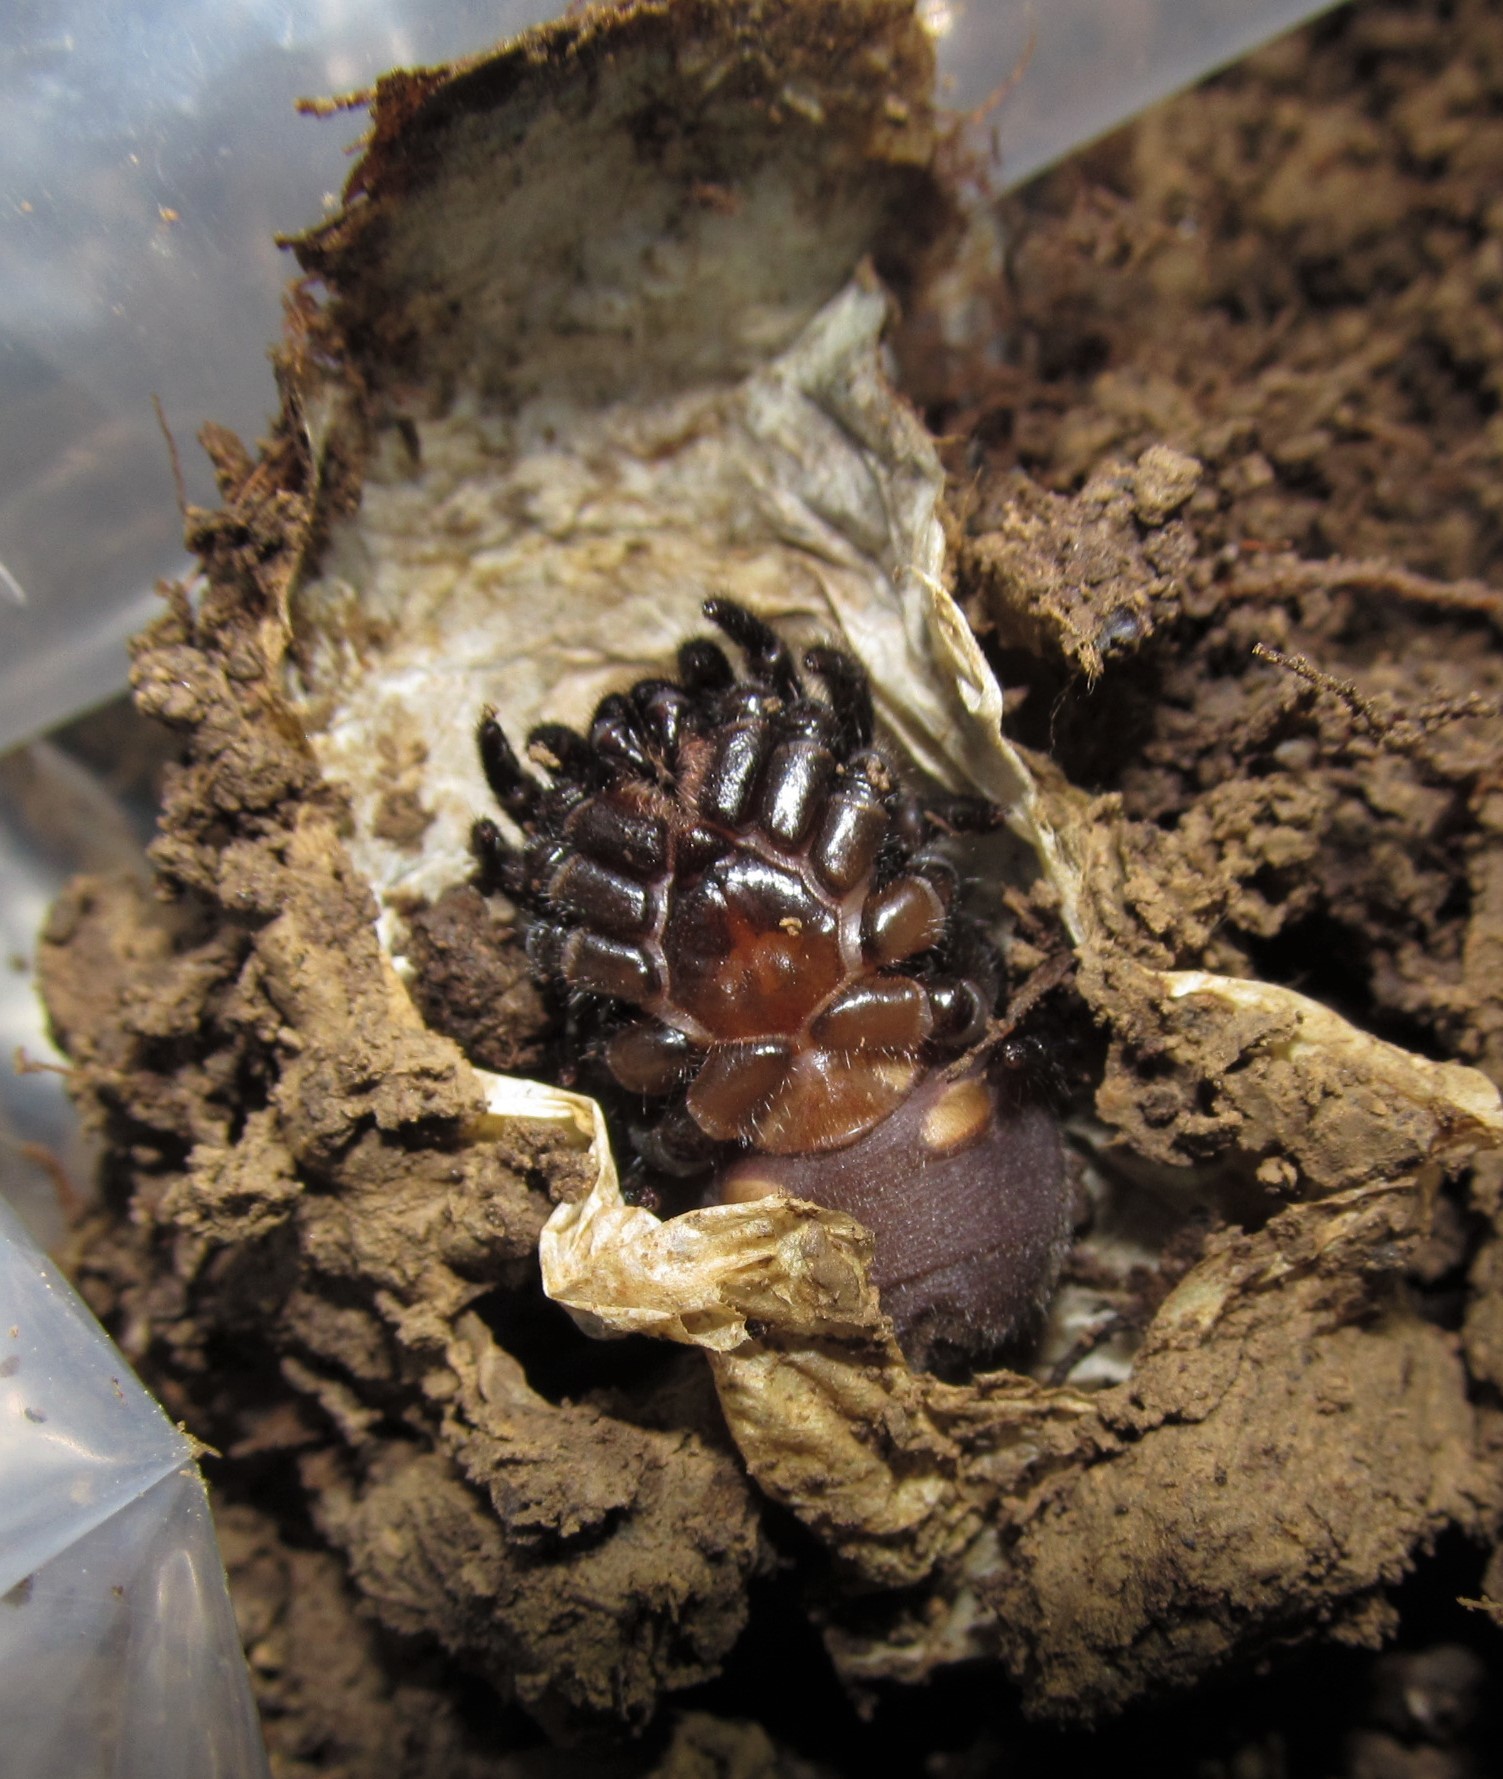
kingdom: Animalia
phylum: Arthropoda
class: Arachnida
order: Araneae
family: Halonoproctidae
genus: Ummidia
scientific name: Ummidia audouini
